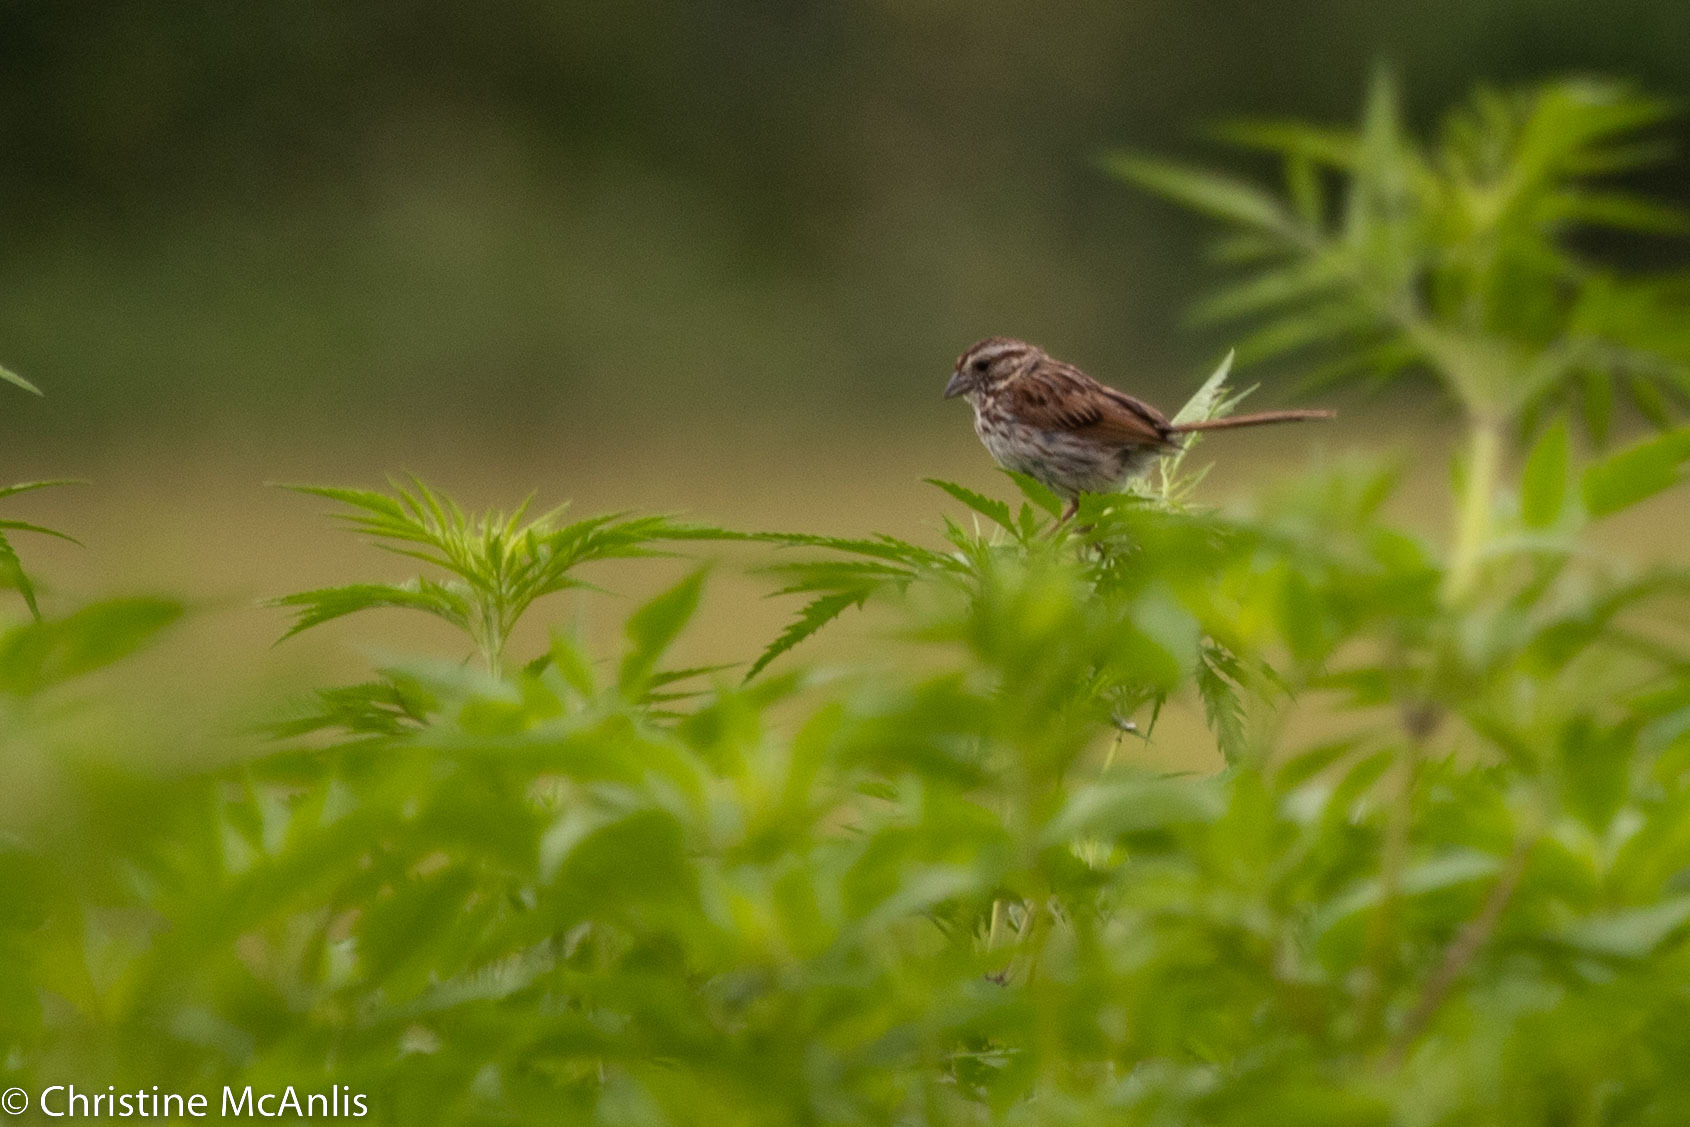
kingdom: Animalia
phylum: Chordata
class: Aves
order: Passeriformes
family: Passerellidae
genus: Melospiza
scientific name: Melospiza melodia
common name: Song sparrow
